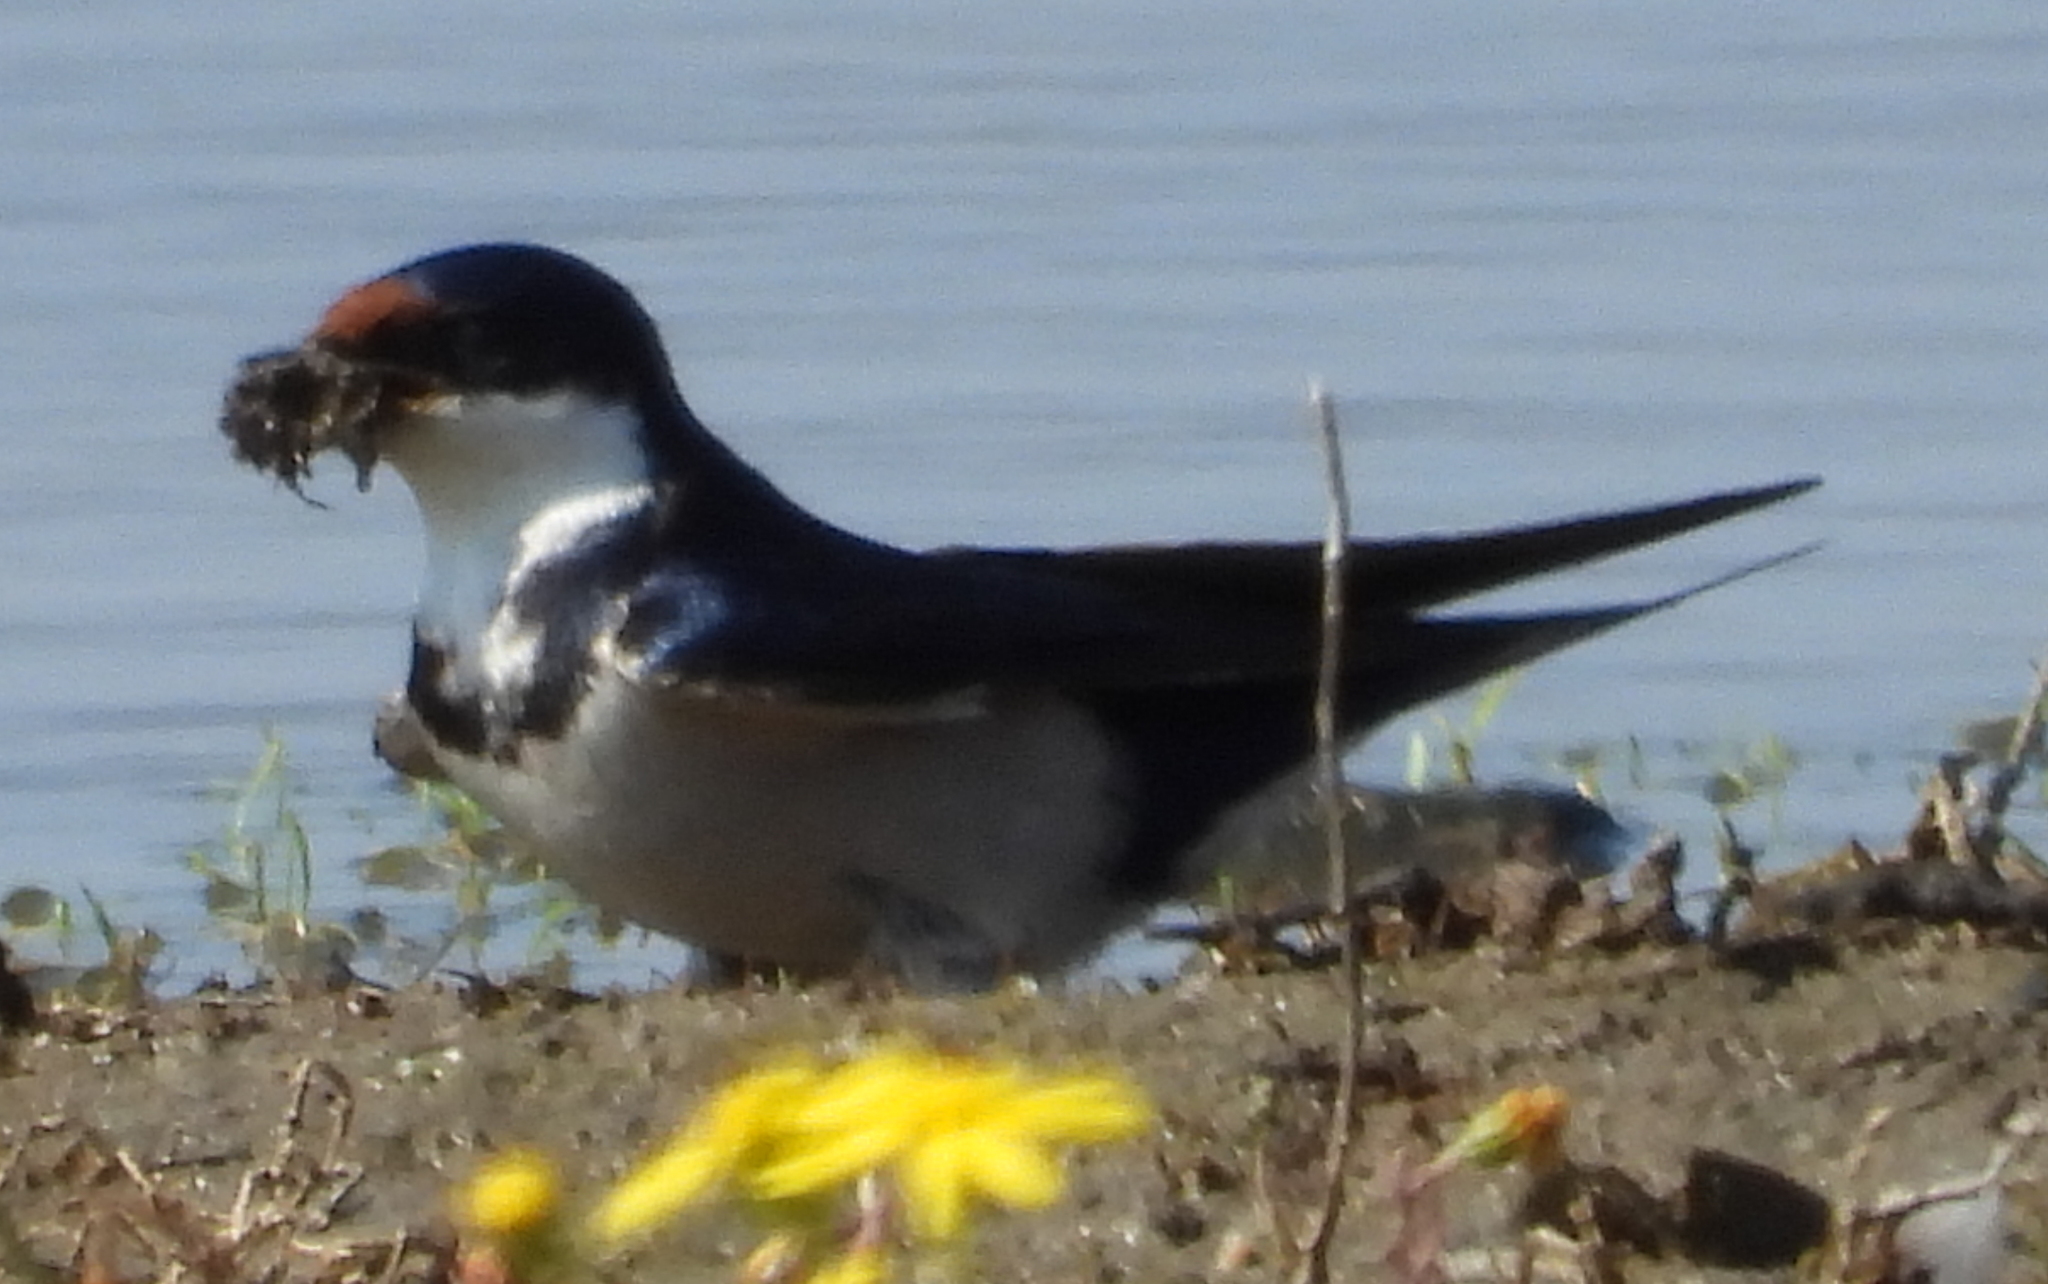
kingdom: Animalia
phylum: Chordata
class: Aves
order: Passeriformes
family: Hirundinidae
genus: Hirundo
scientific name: Hirundo albigularis
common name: White-throated swallow
